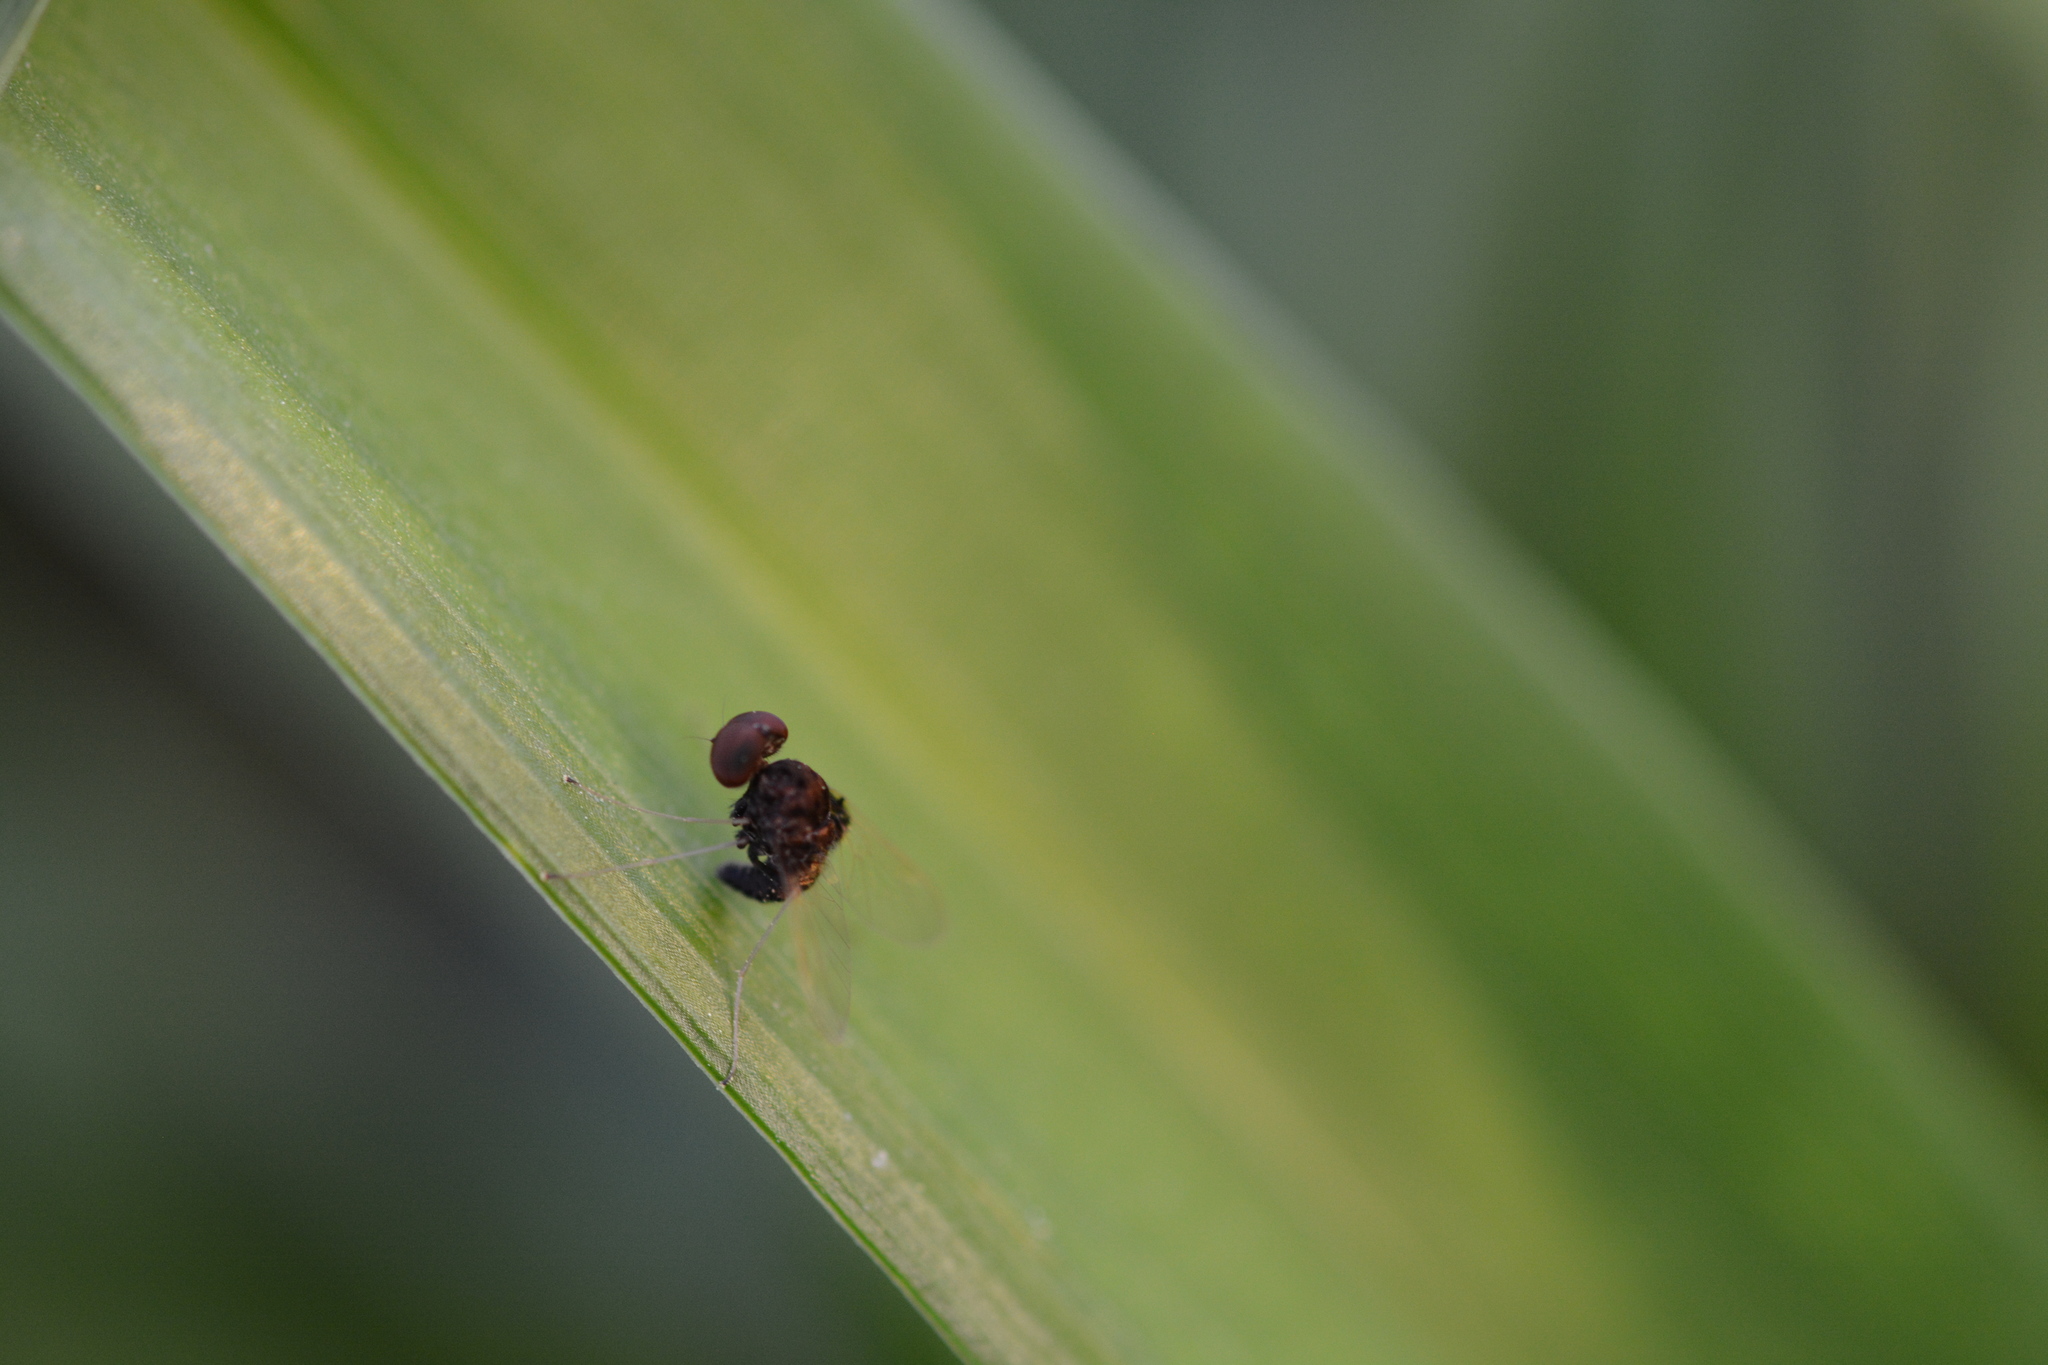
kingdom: Animalia
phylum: Arthropoda
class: Insecta
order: Diptera
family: Rhagionidae
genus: Chrysopilus
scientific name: Chrysopilus basilaris
